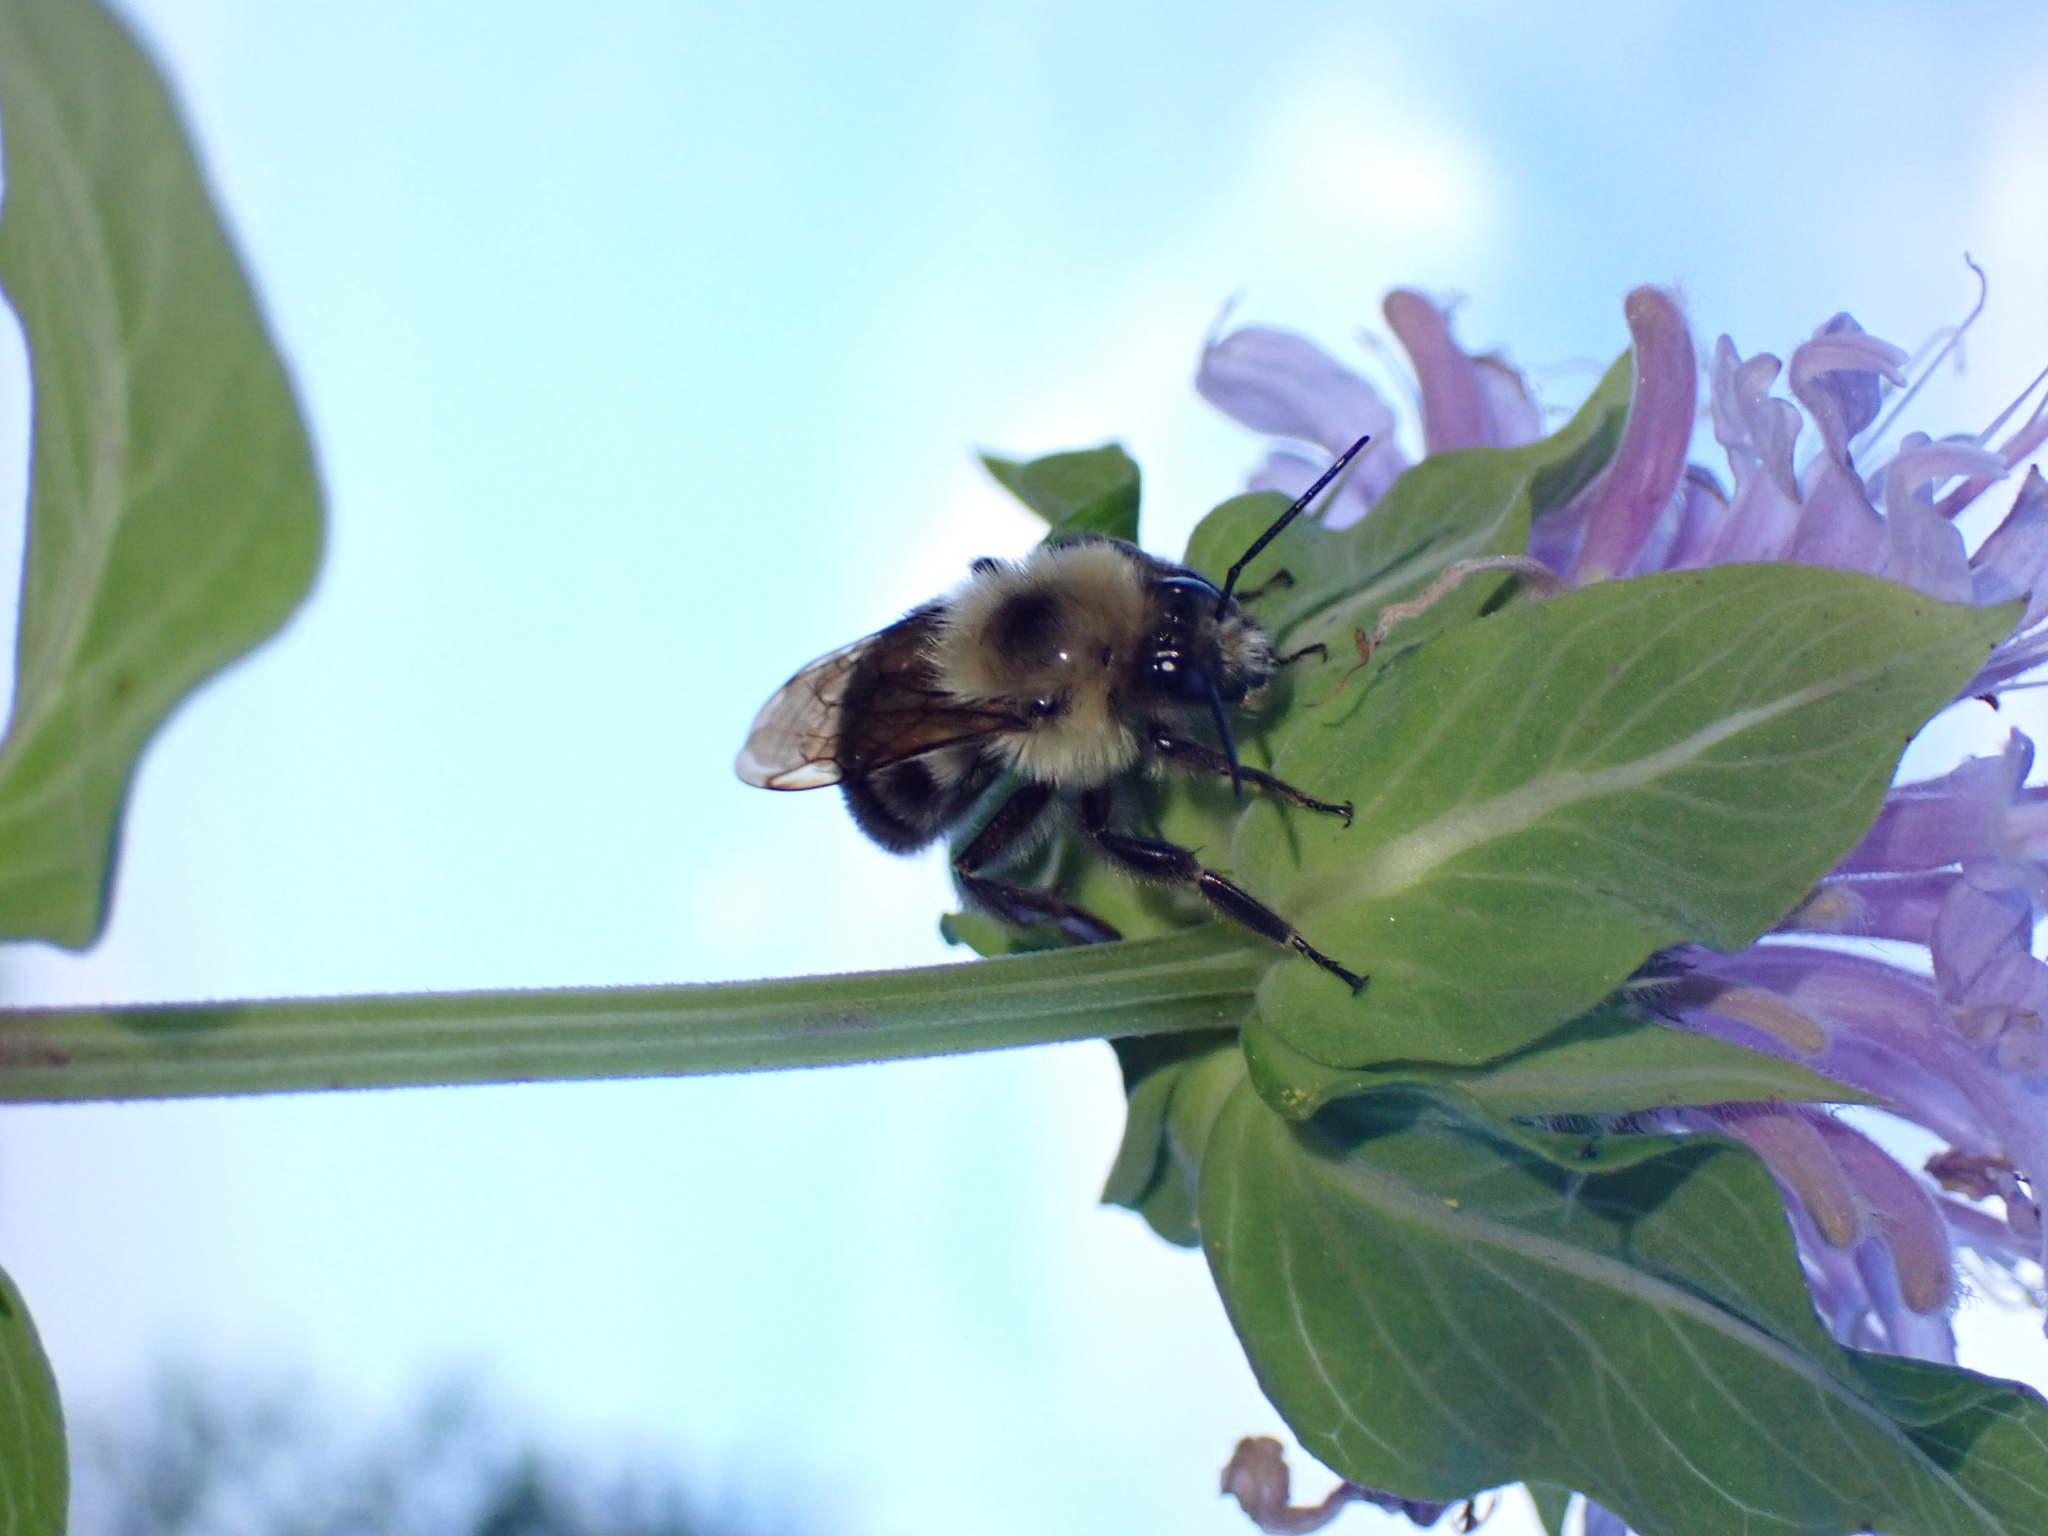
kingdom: Animalia
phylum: Arthropoda
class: Insecta
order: Hymenoptera
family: Apidae
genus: Bombus
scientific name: Bombus bimaculatus
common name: Two-spotted bumble bee
